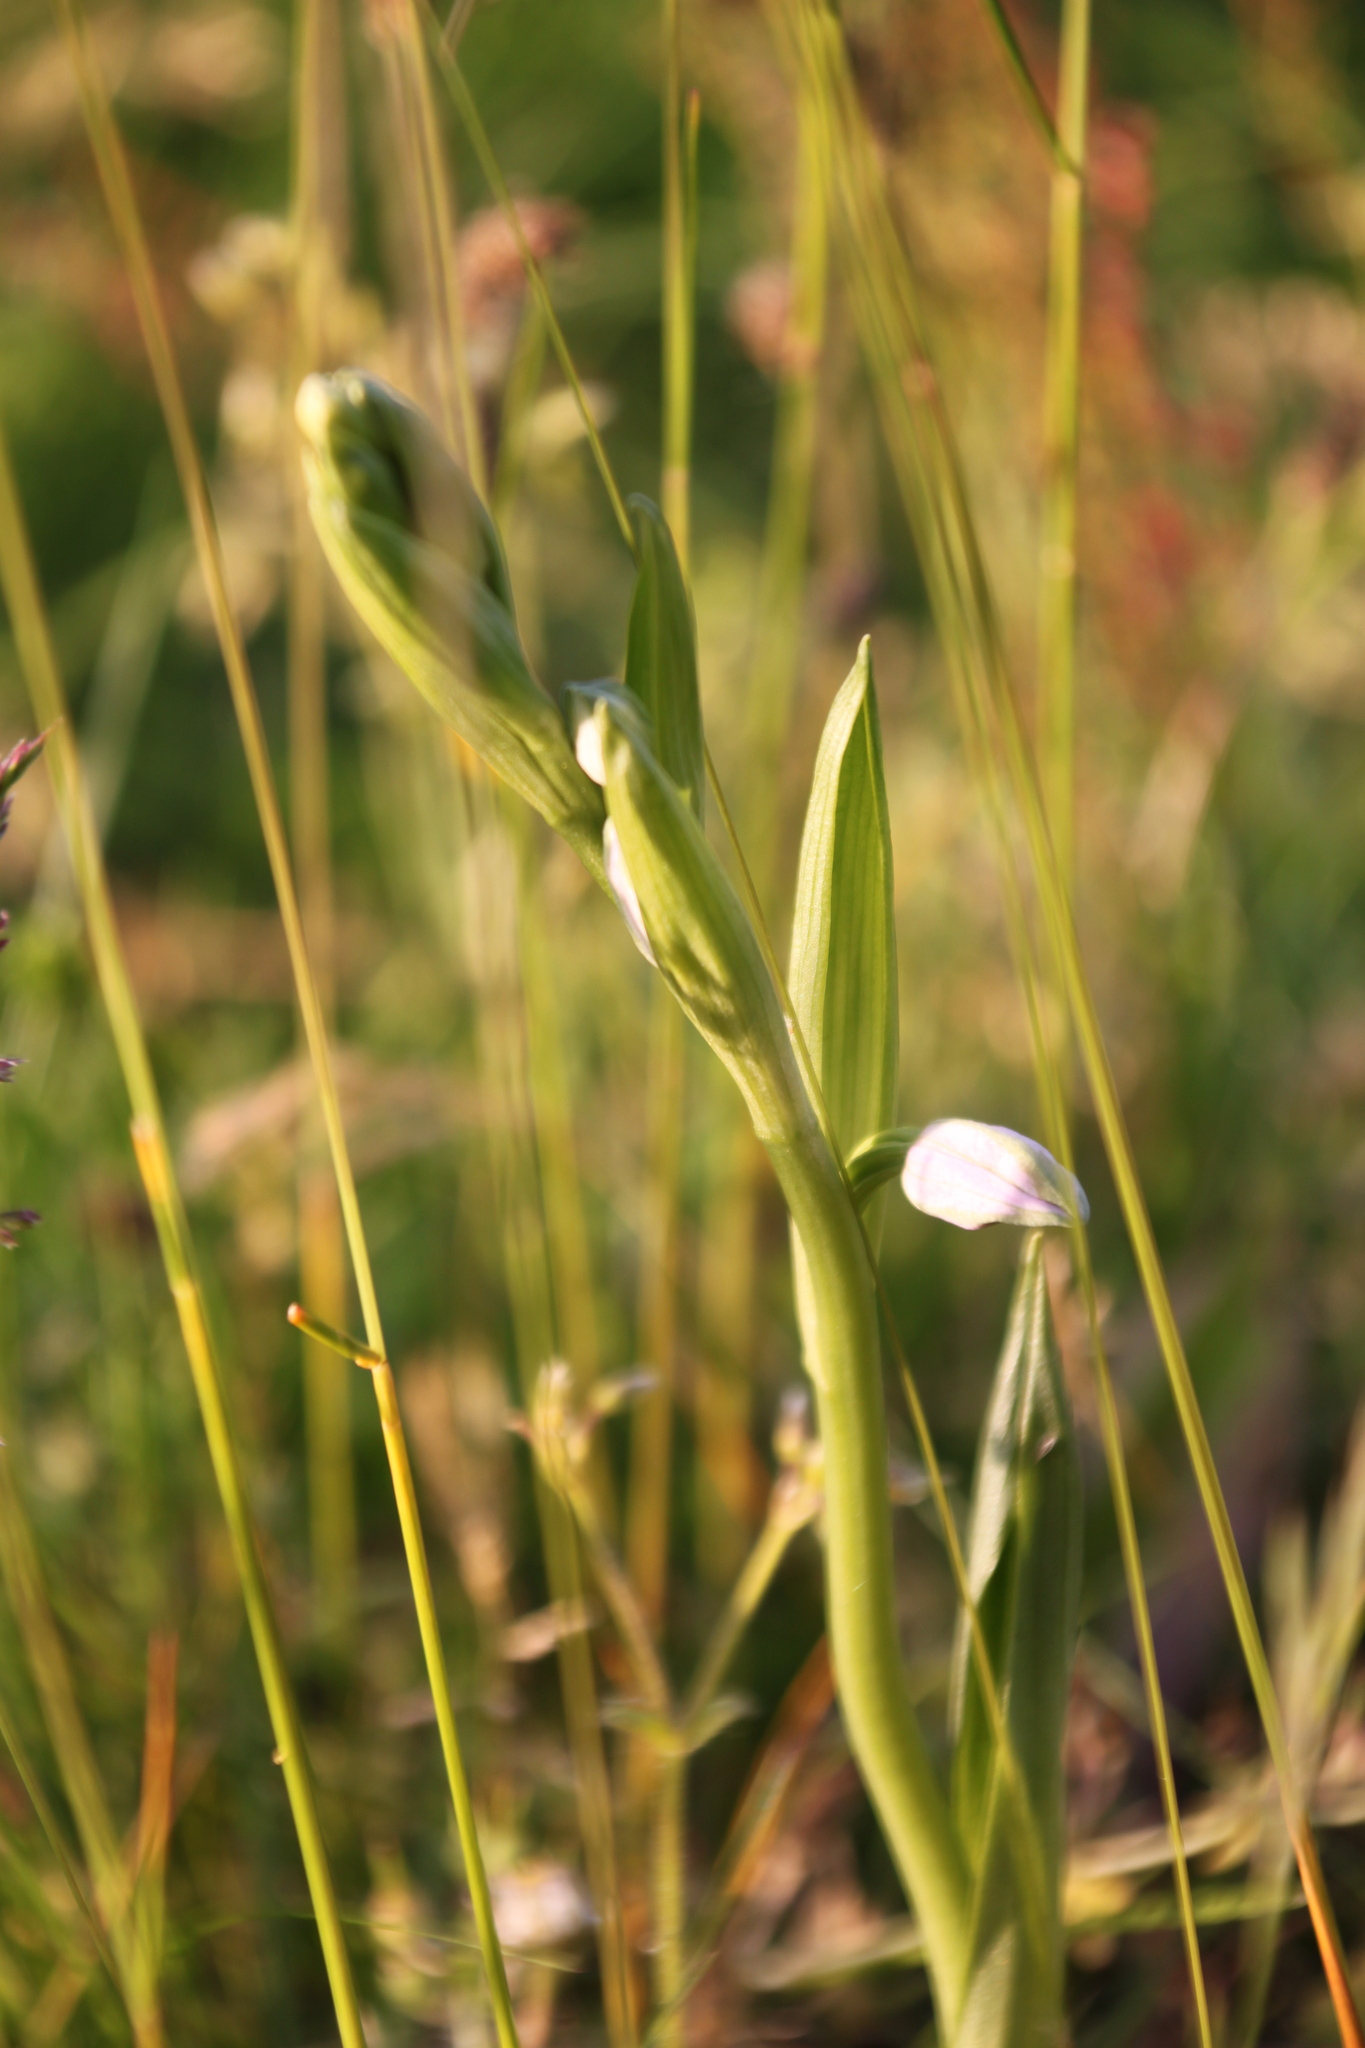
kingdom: Plantae
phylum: Tracheophyta
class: Liliopsida
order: Asparagales
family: Orchidaceae
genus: Ophrys
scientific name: Ophrys apifera
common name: Bee orchid
